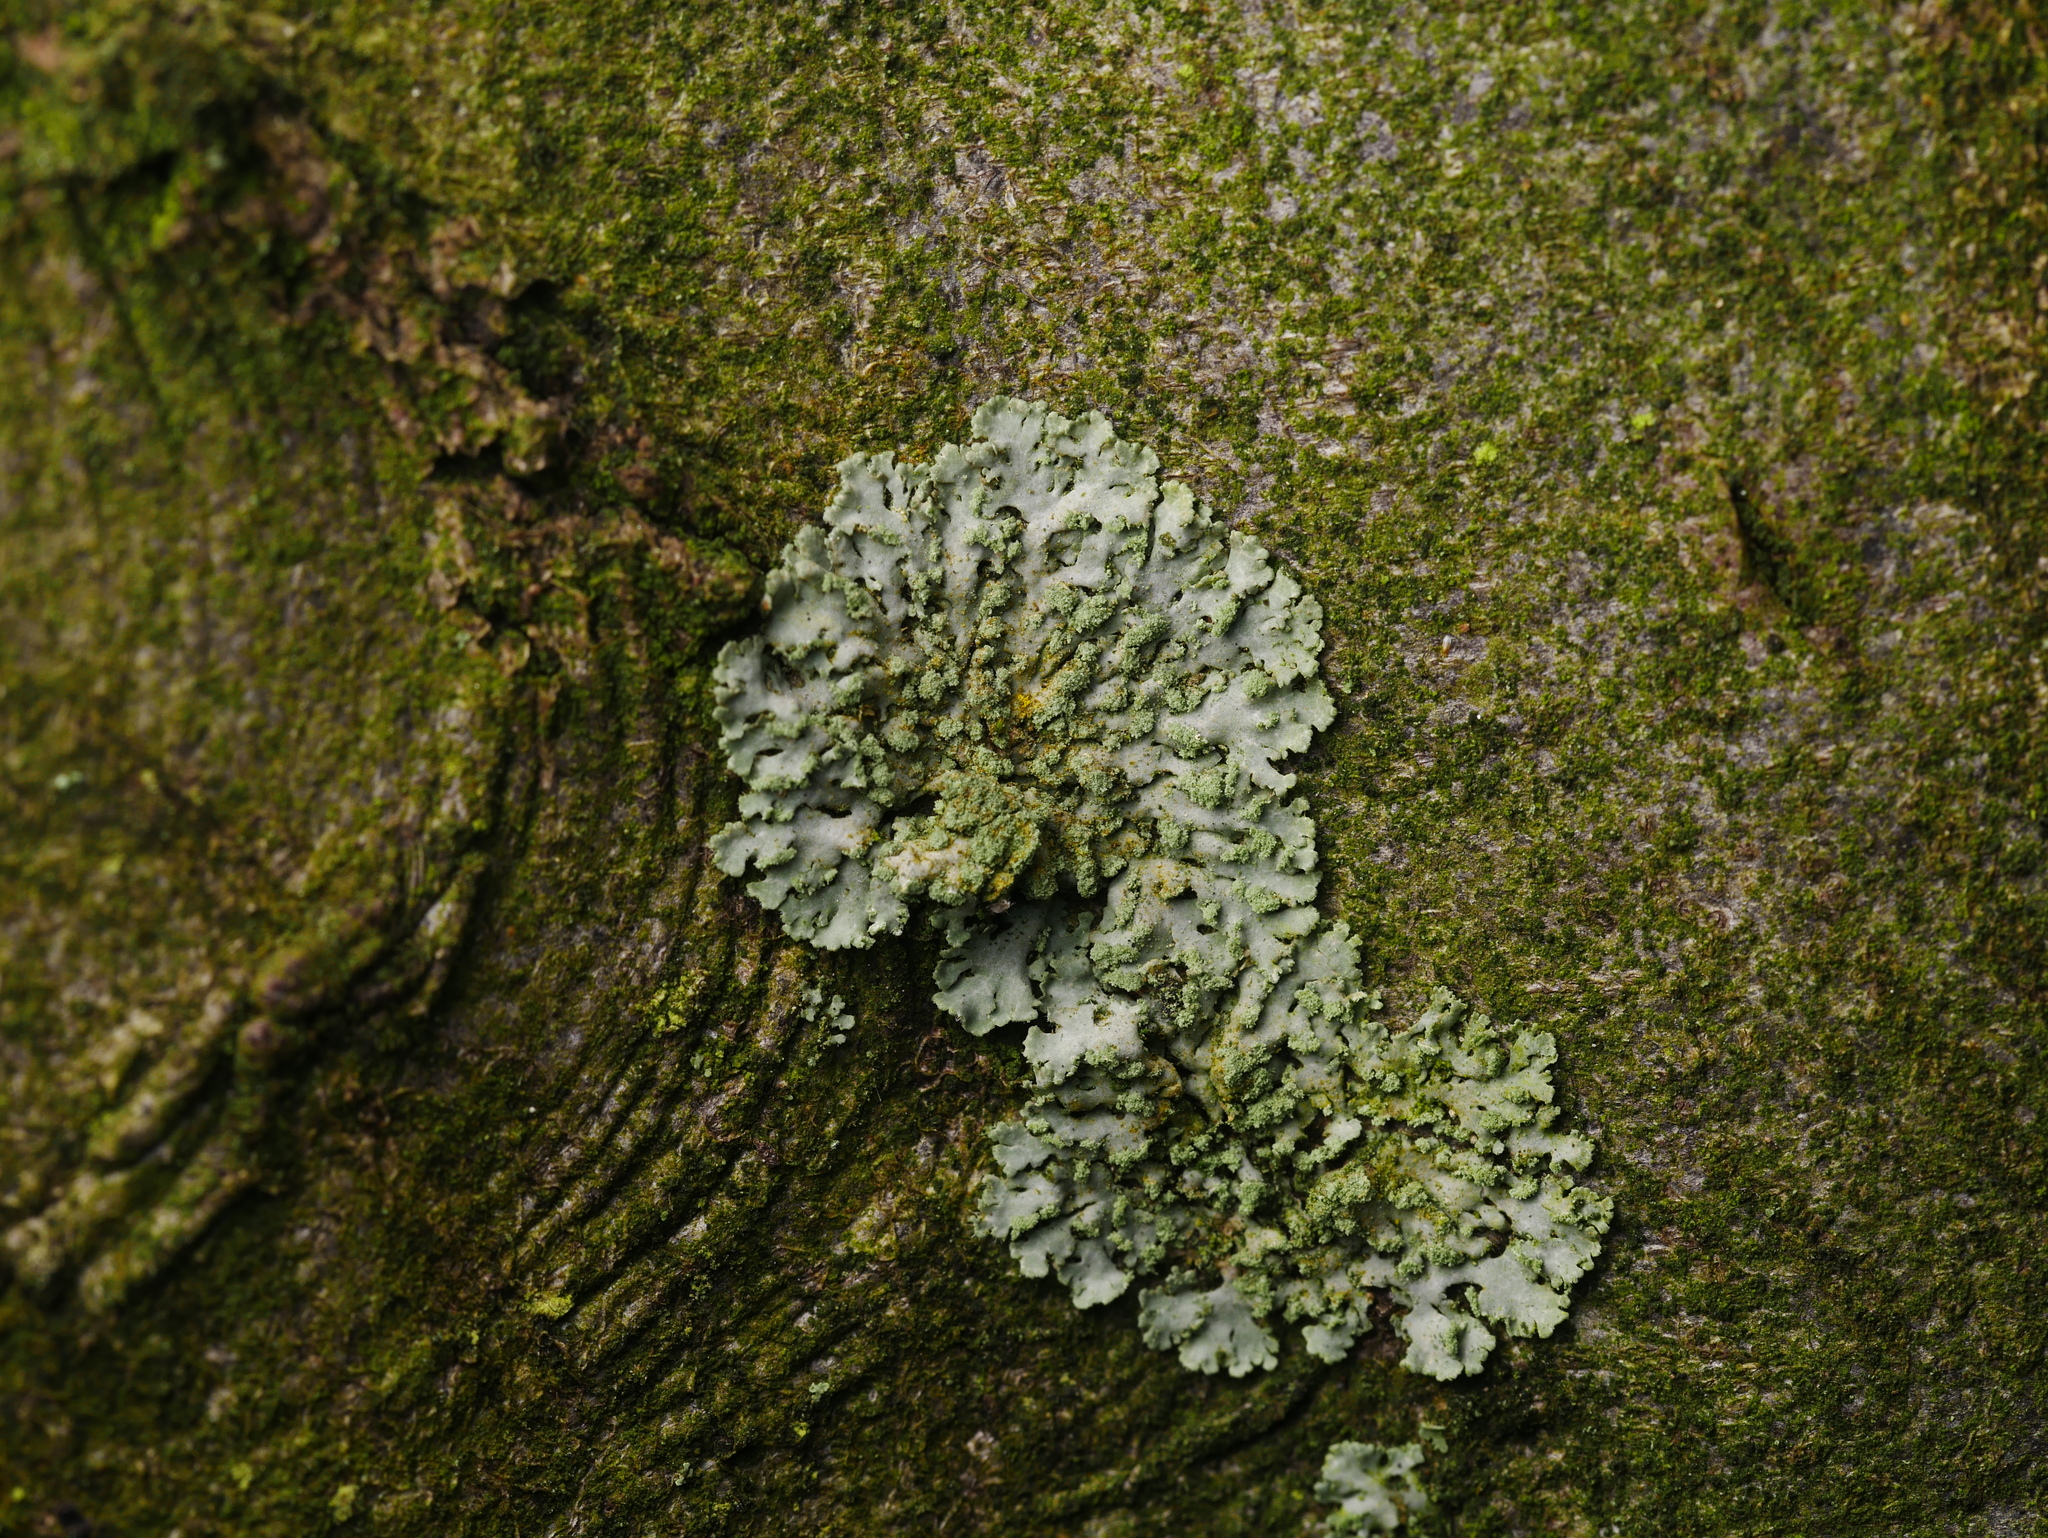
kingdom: Fungi
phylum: Ascomycota
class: Lecanoromycetes
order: Caliciales
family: Physciaceae
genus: Phaeophyscia
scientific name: Phaeophyscia orbicularis
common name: Mealy shadow lichen
